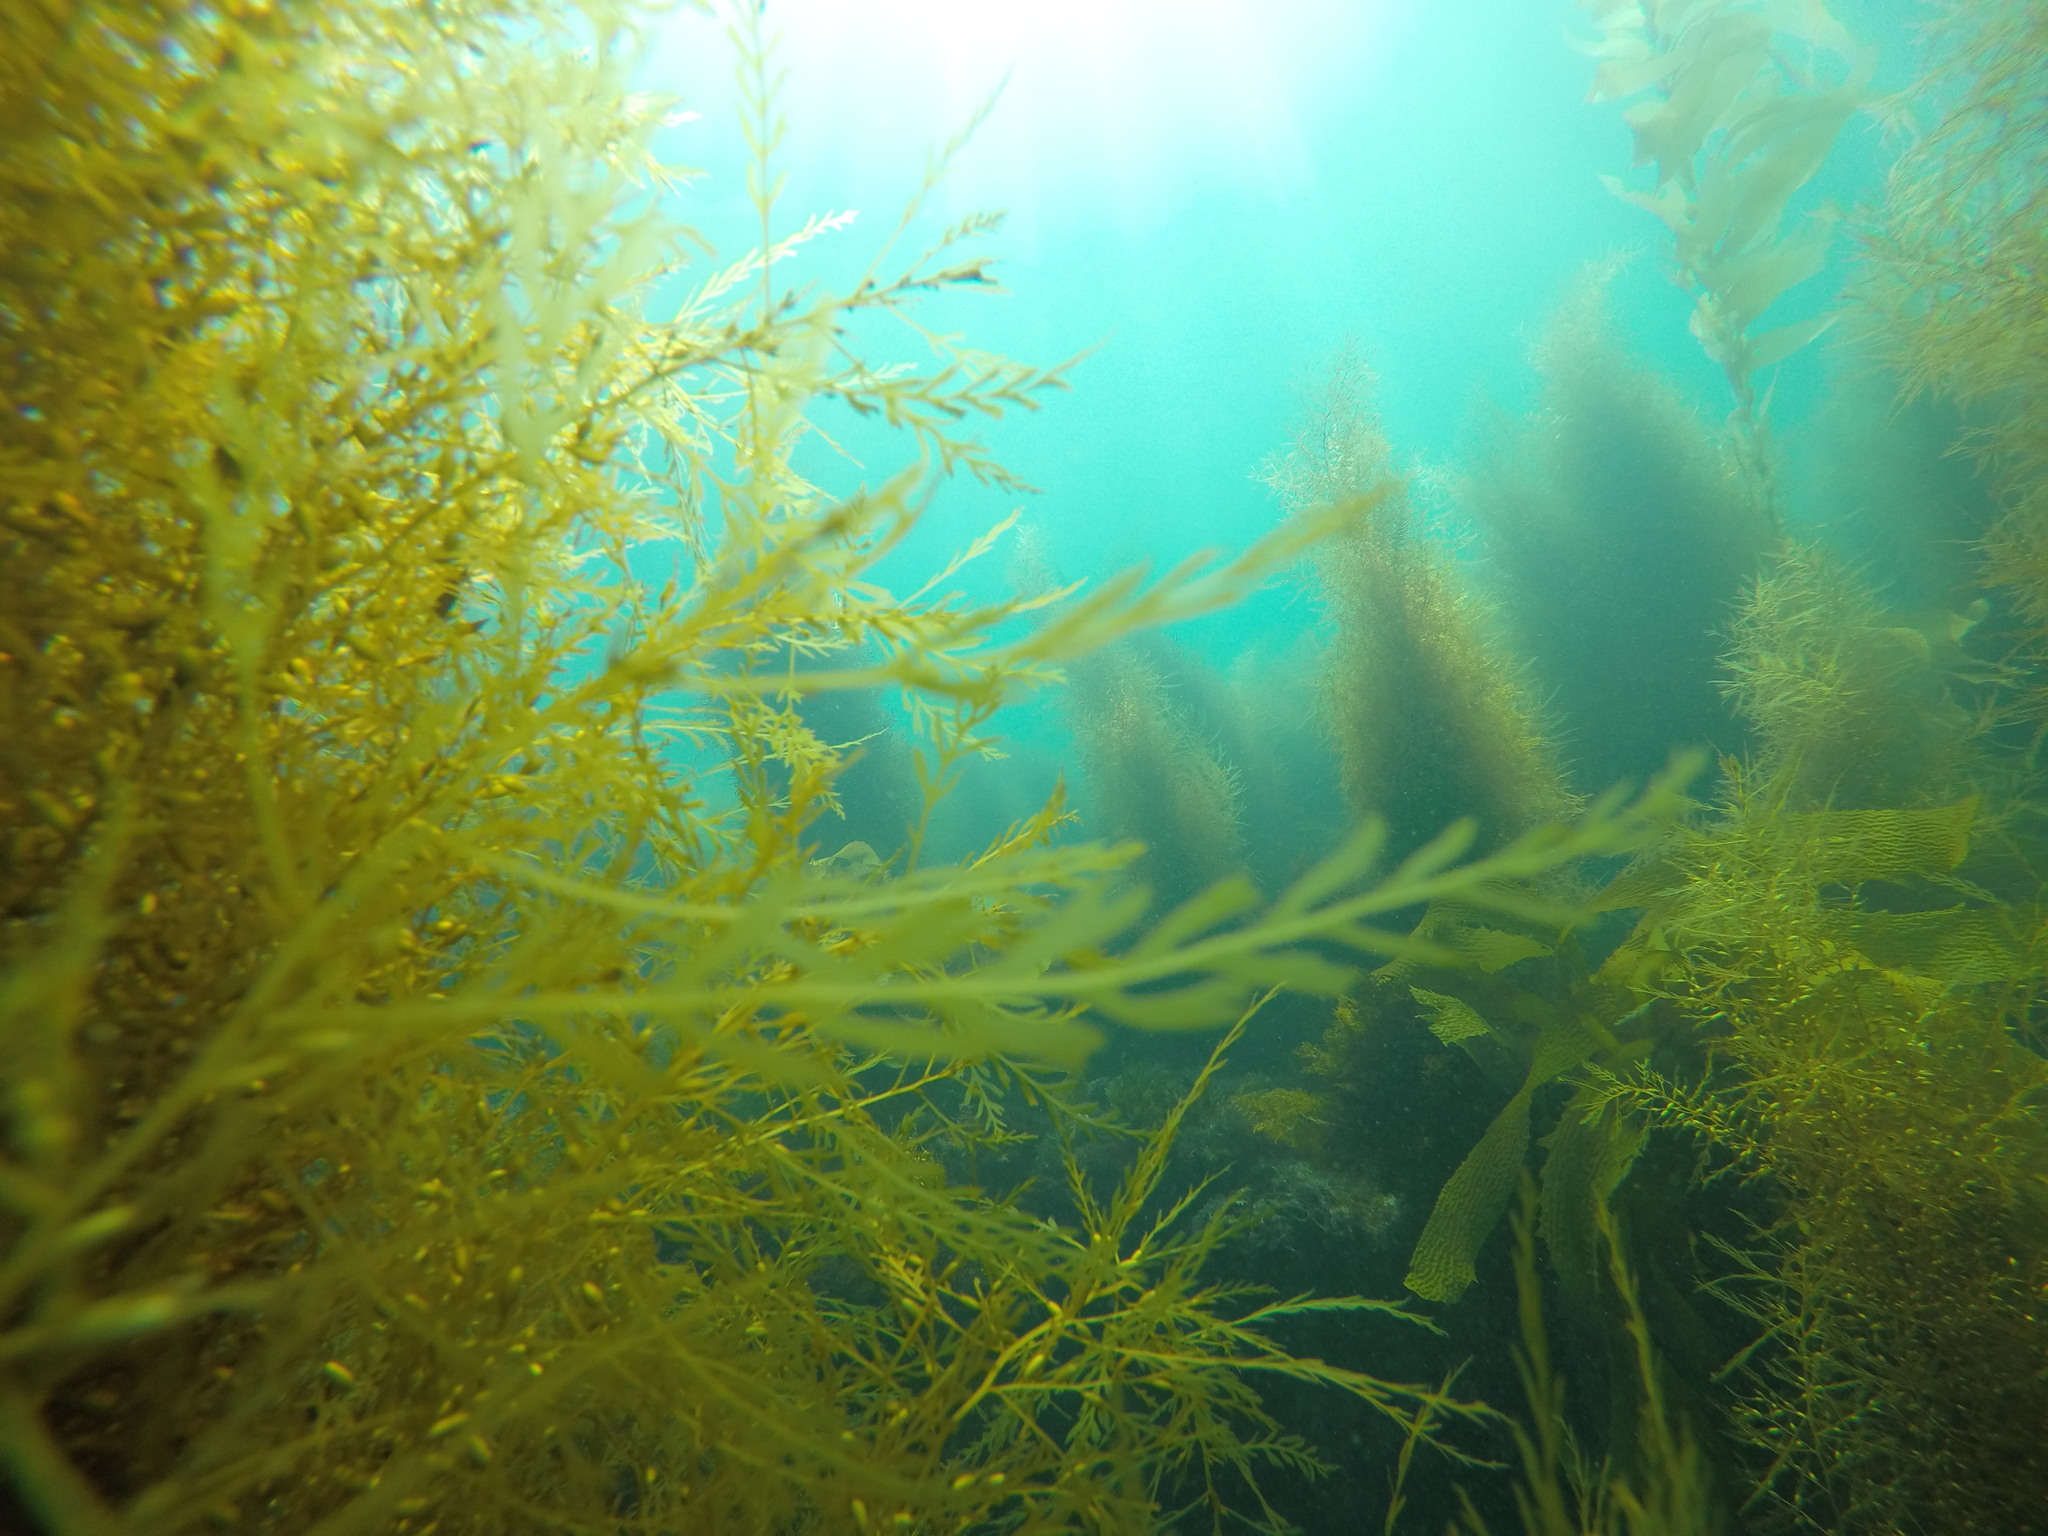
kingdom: Chromista
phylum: Ochrophyta
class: Phaeophyceae
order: Fucales
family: Sargassaceae
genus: Sargassum
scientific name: Sargassum horneri
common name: Devil weed
